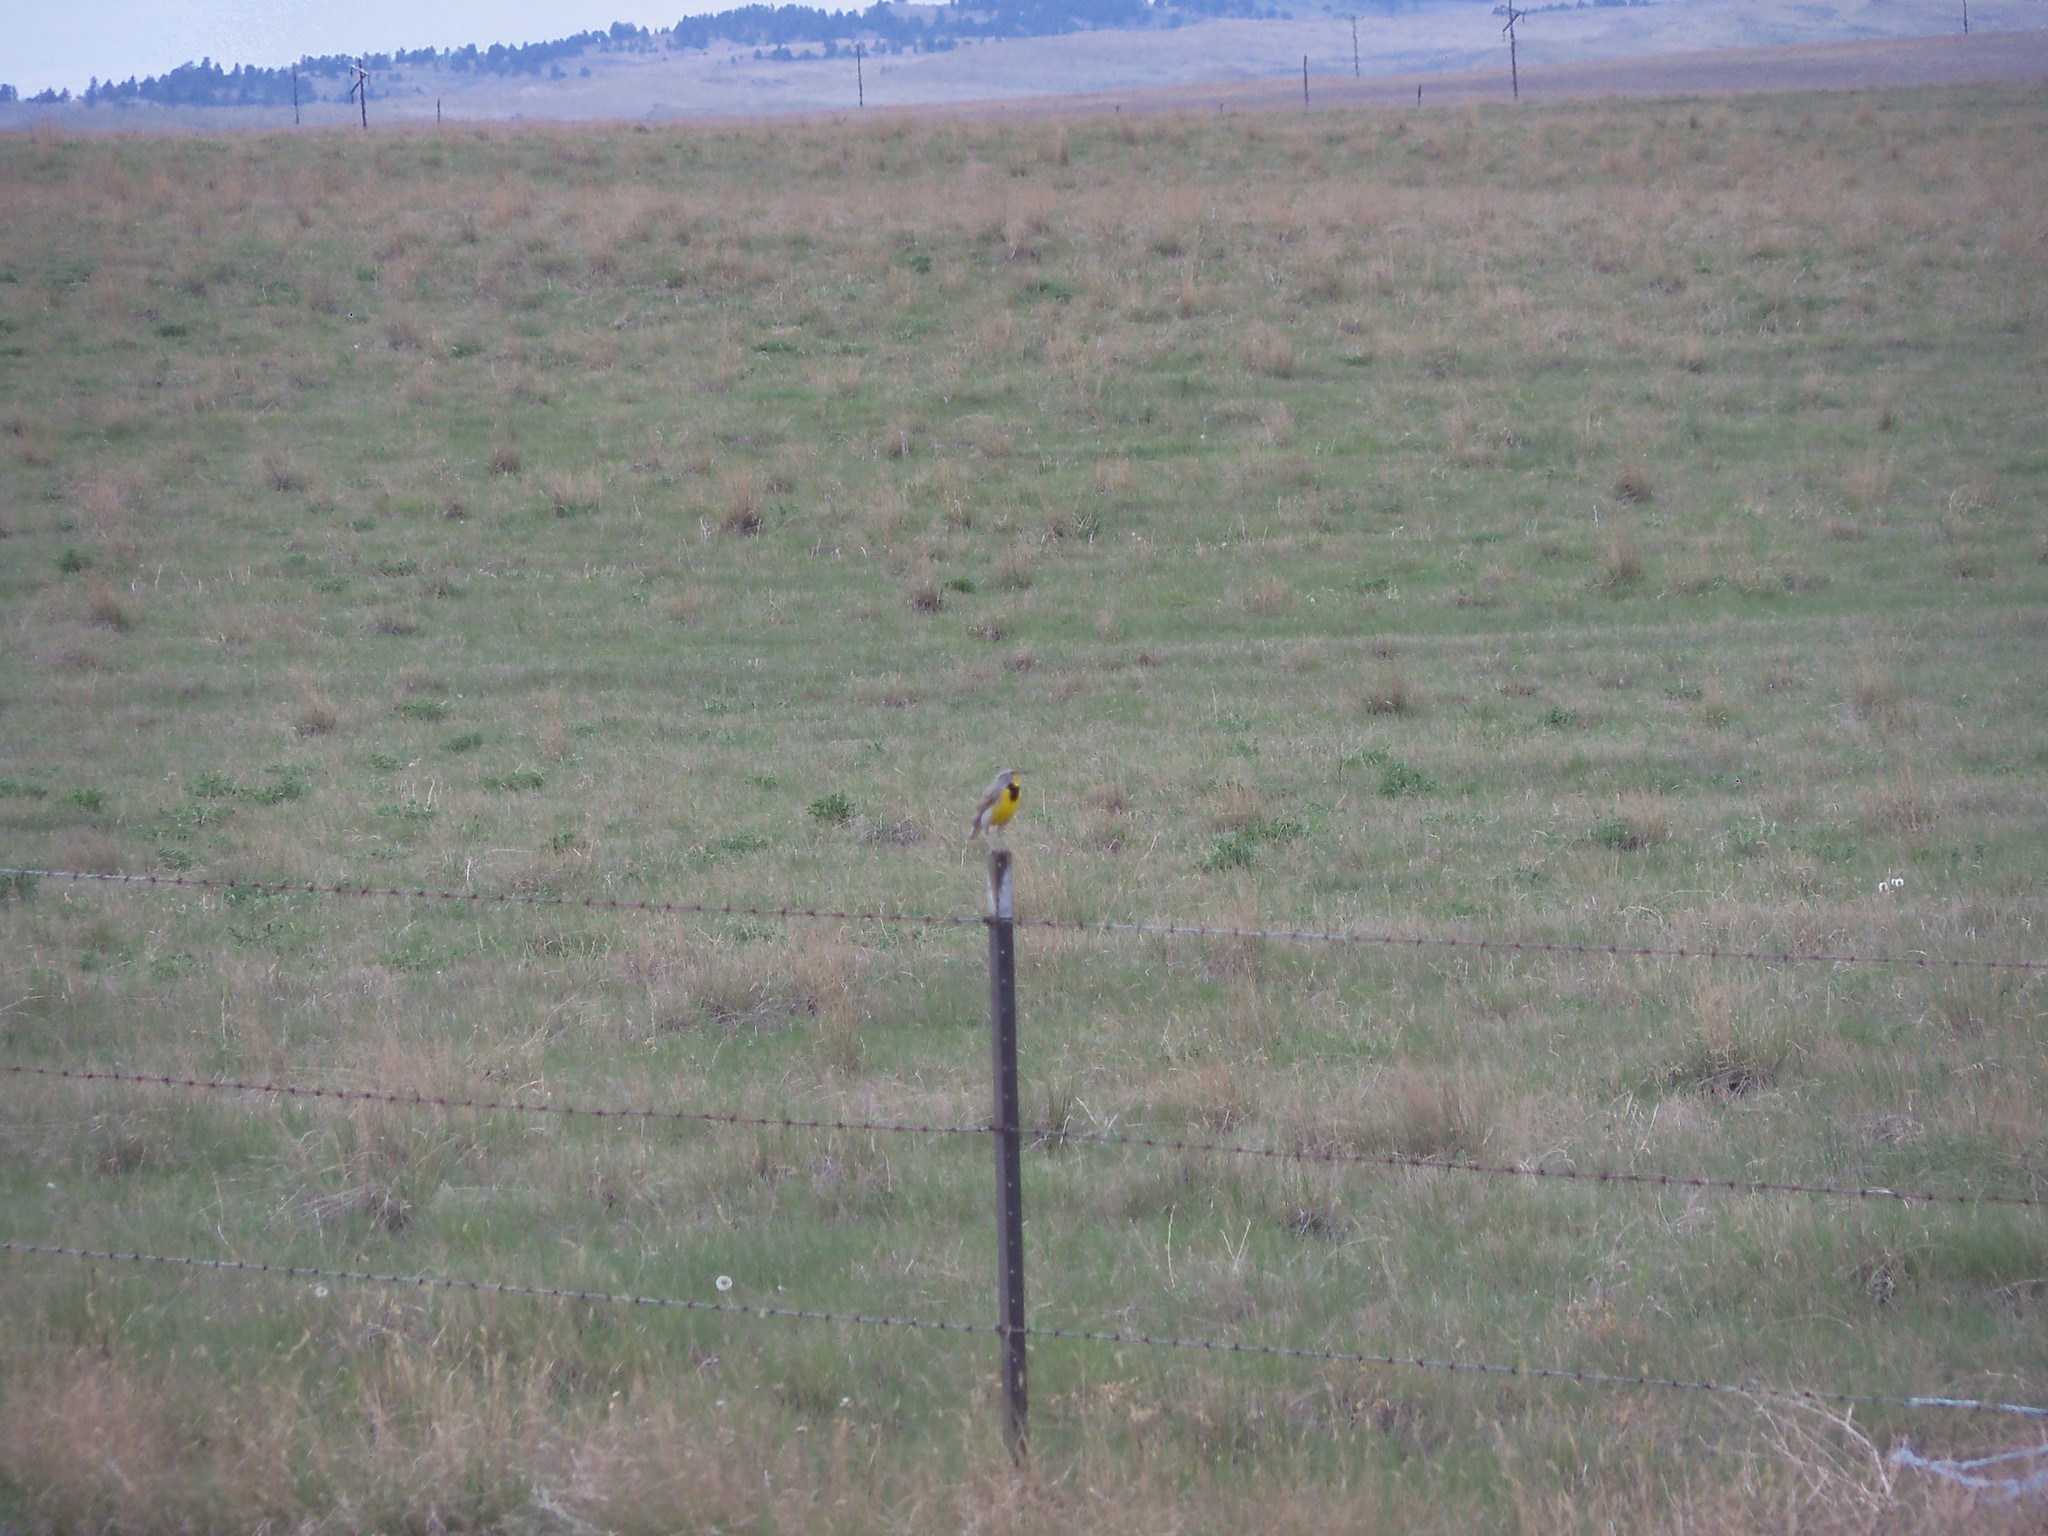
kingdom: Animalia
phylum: Chordata
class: Aves
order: Passeriformes
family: Icteridae
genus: Sturnella
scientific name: Sturnella neglecta
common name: Western meadowlark
